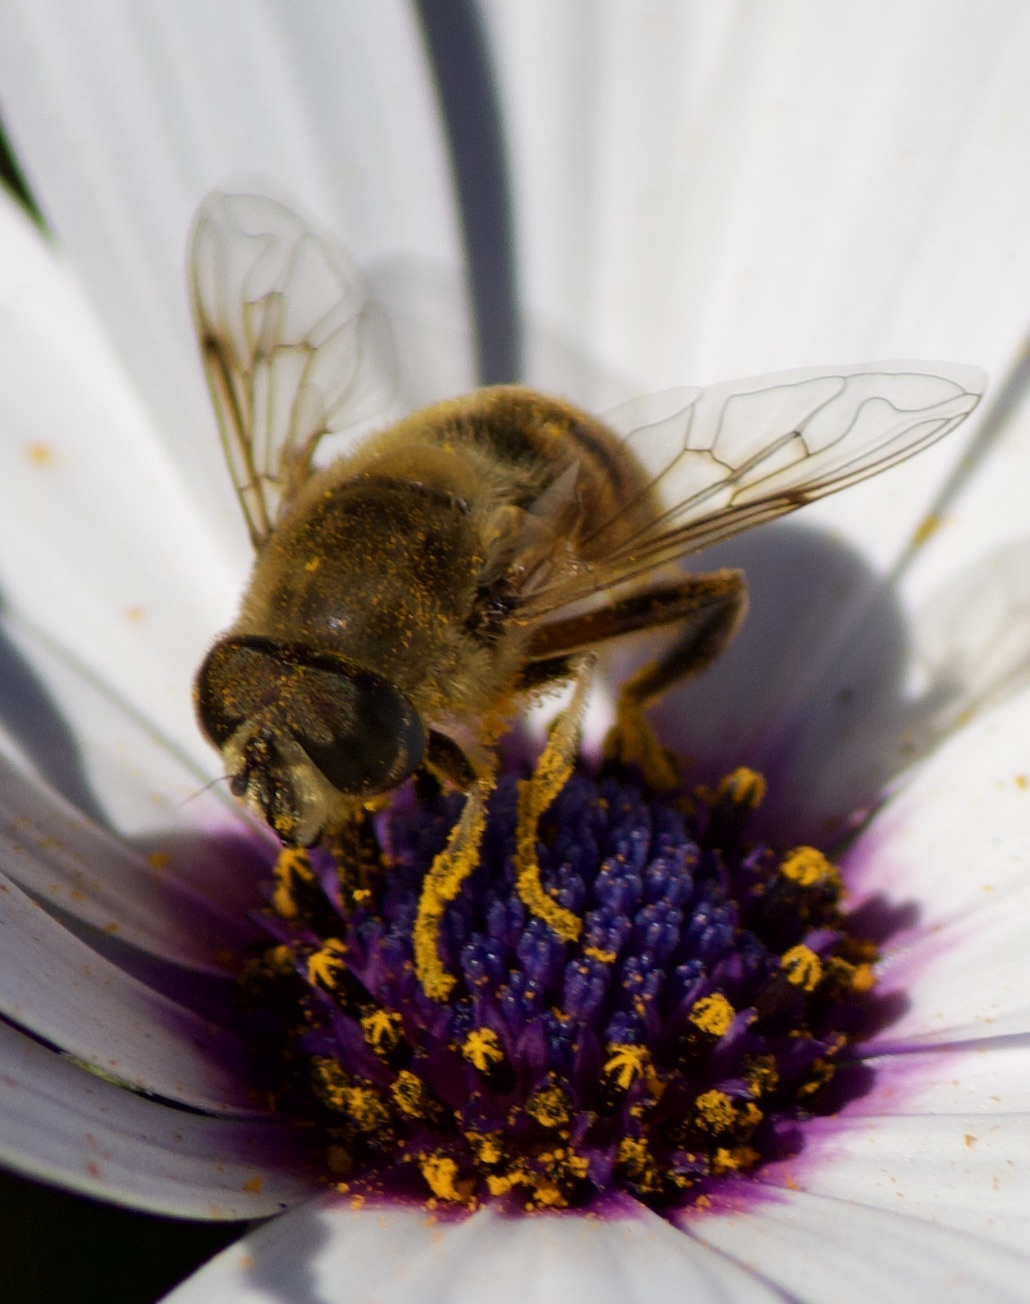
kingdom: Animalia
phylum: Arthropoda
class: Insecta
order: Diptera
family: Syrphidae
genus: Eristalis
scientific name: Eristalis tenax
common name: Drone fly
